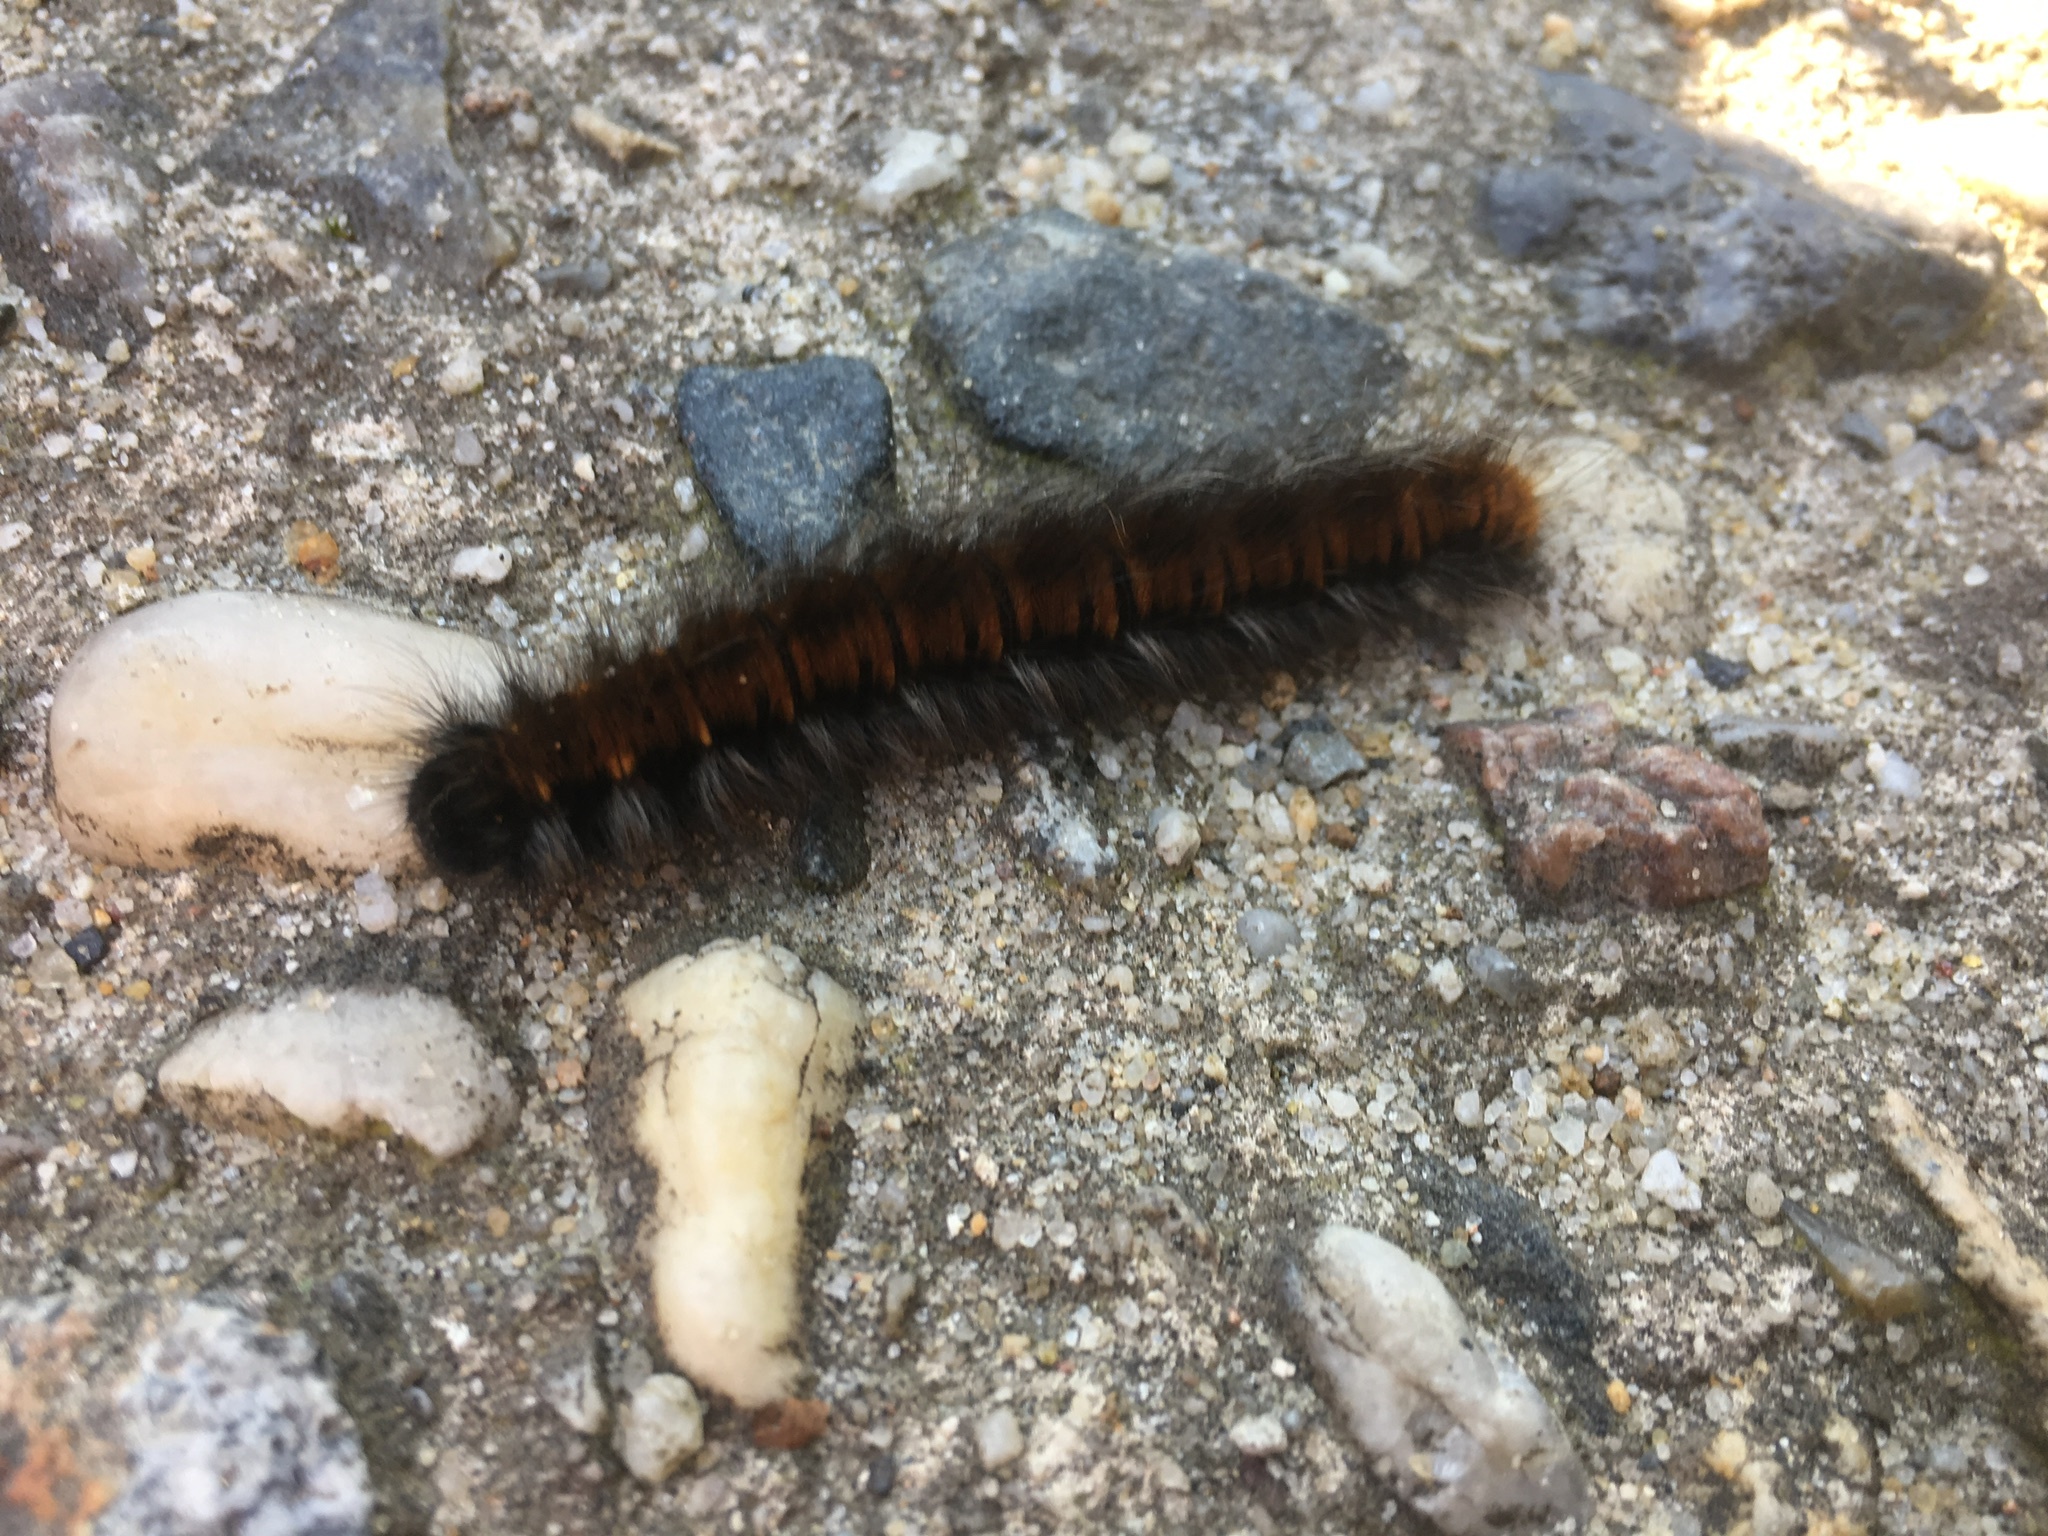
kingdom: Animalia
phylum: Arthropoda
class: Insecta
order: Lepidoptera
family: Lasiocampidae
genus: Macrothylacia
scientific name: Macrothylacia rubi
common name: Fox moth
